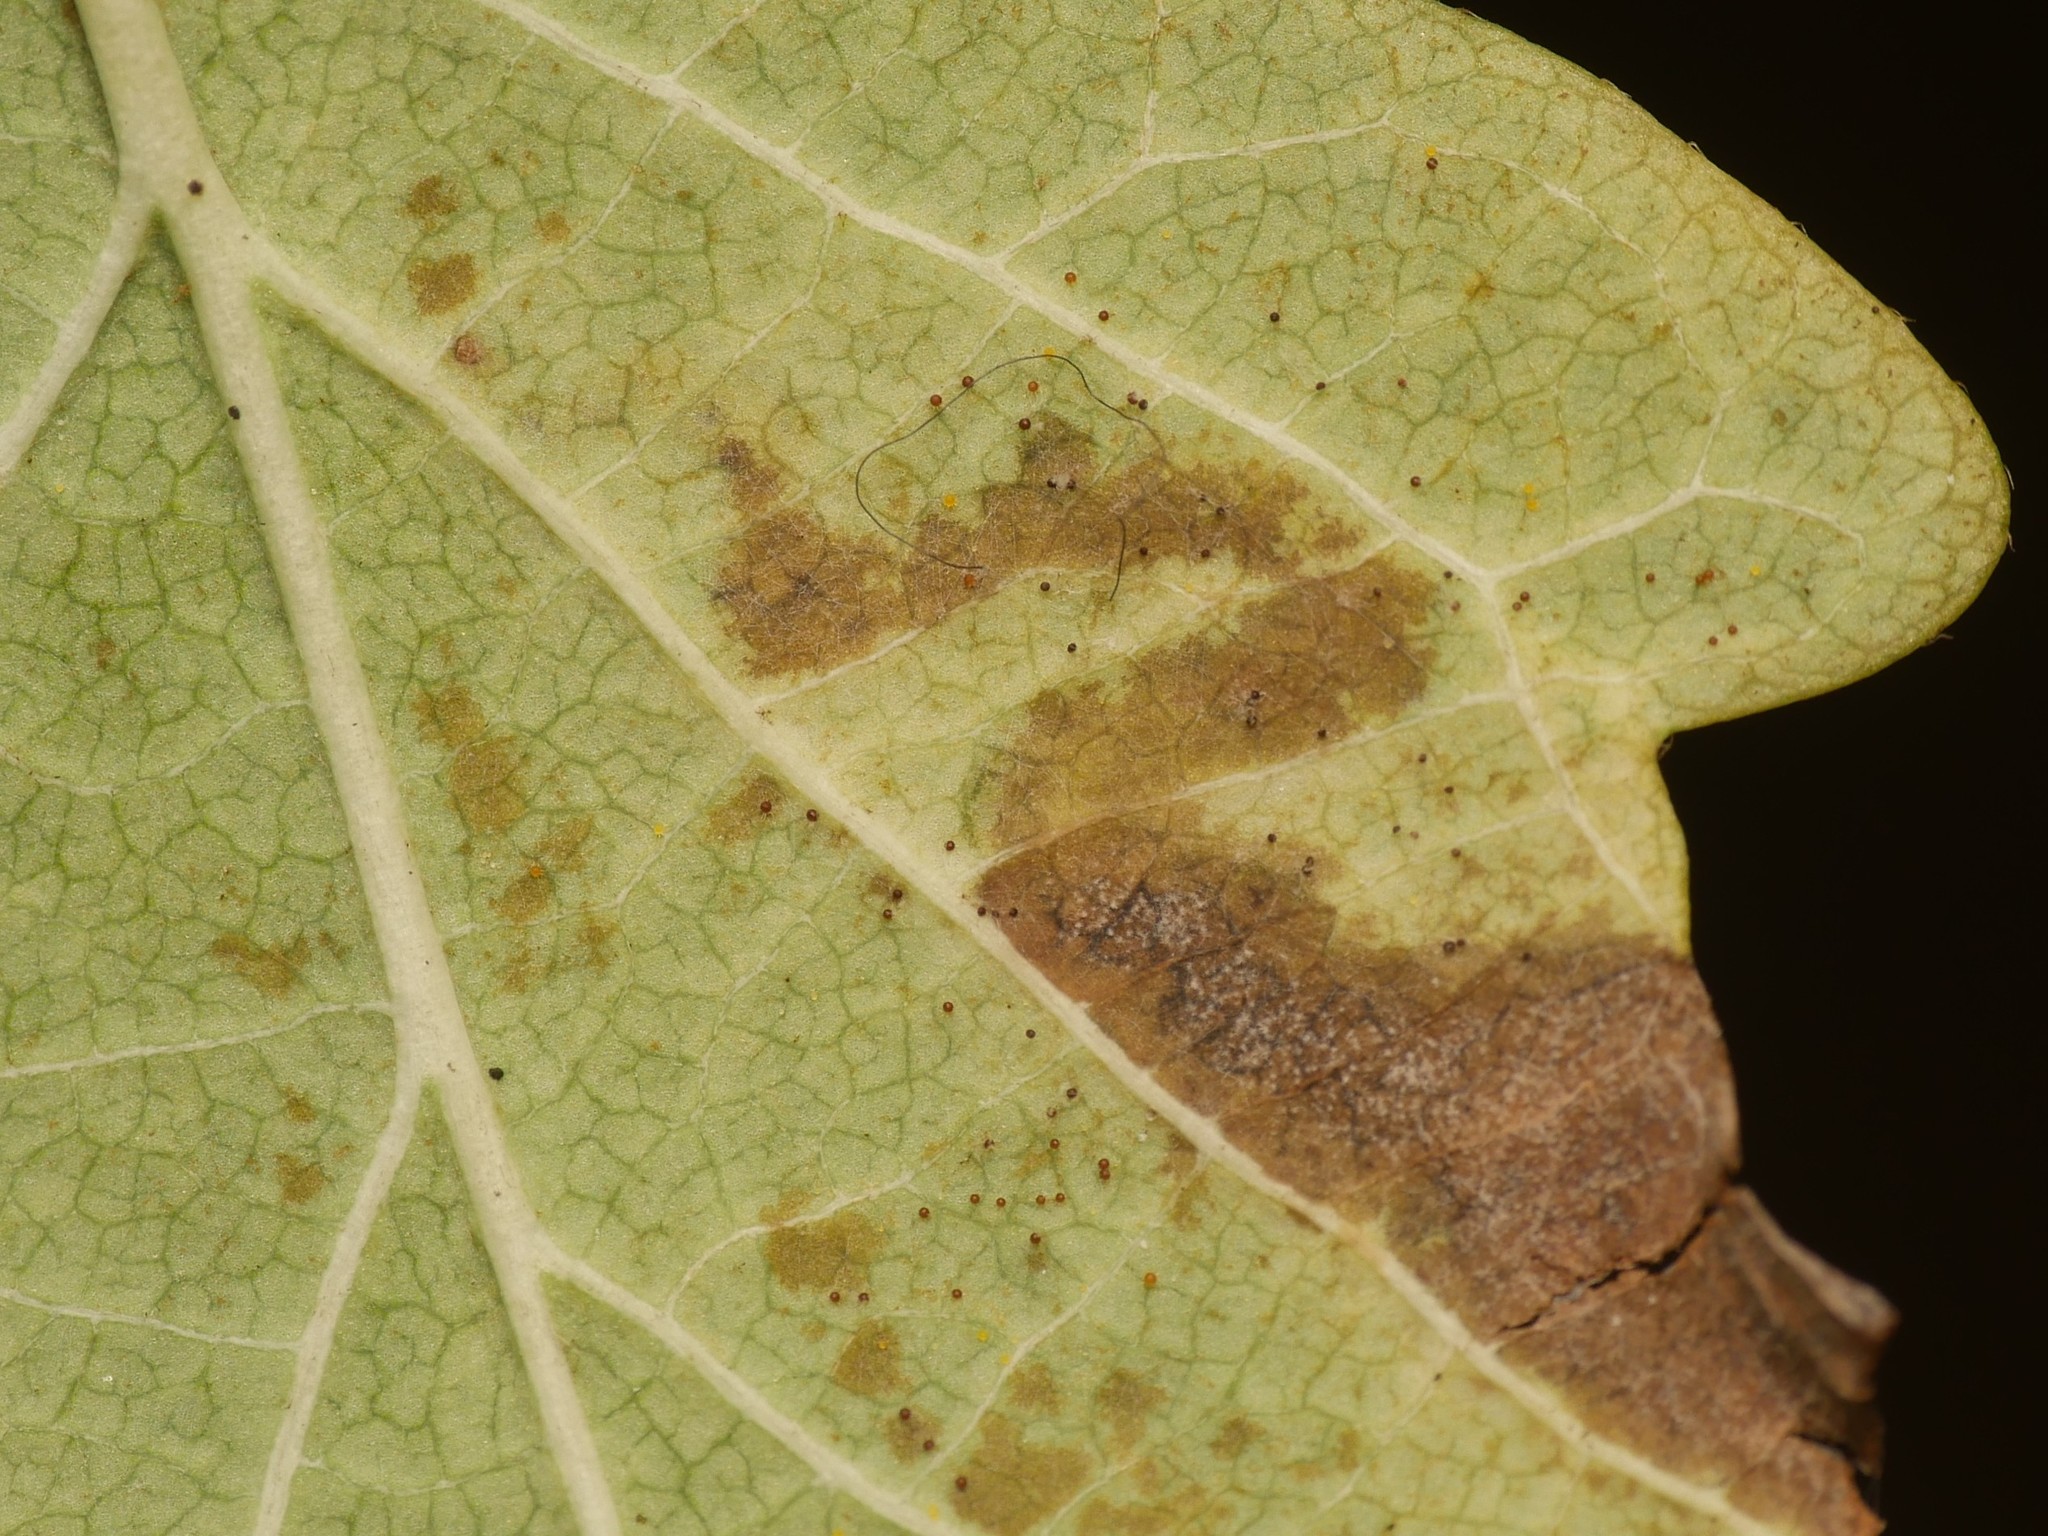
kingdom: Fungi
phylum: Ascomycota
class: Leotiomycetes
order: Helotiales
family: Erysiphaceae
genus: Erysiphe
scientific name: Erysiphe symphoricarpi
